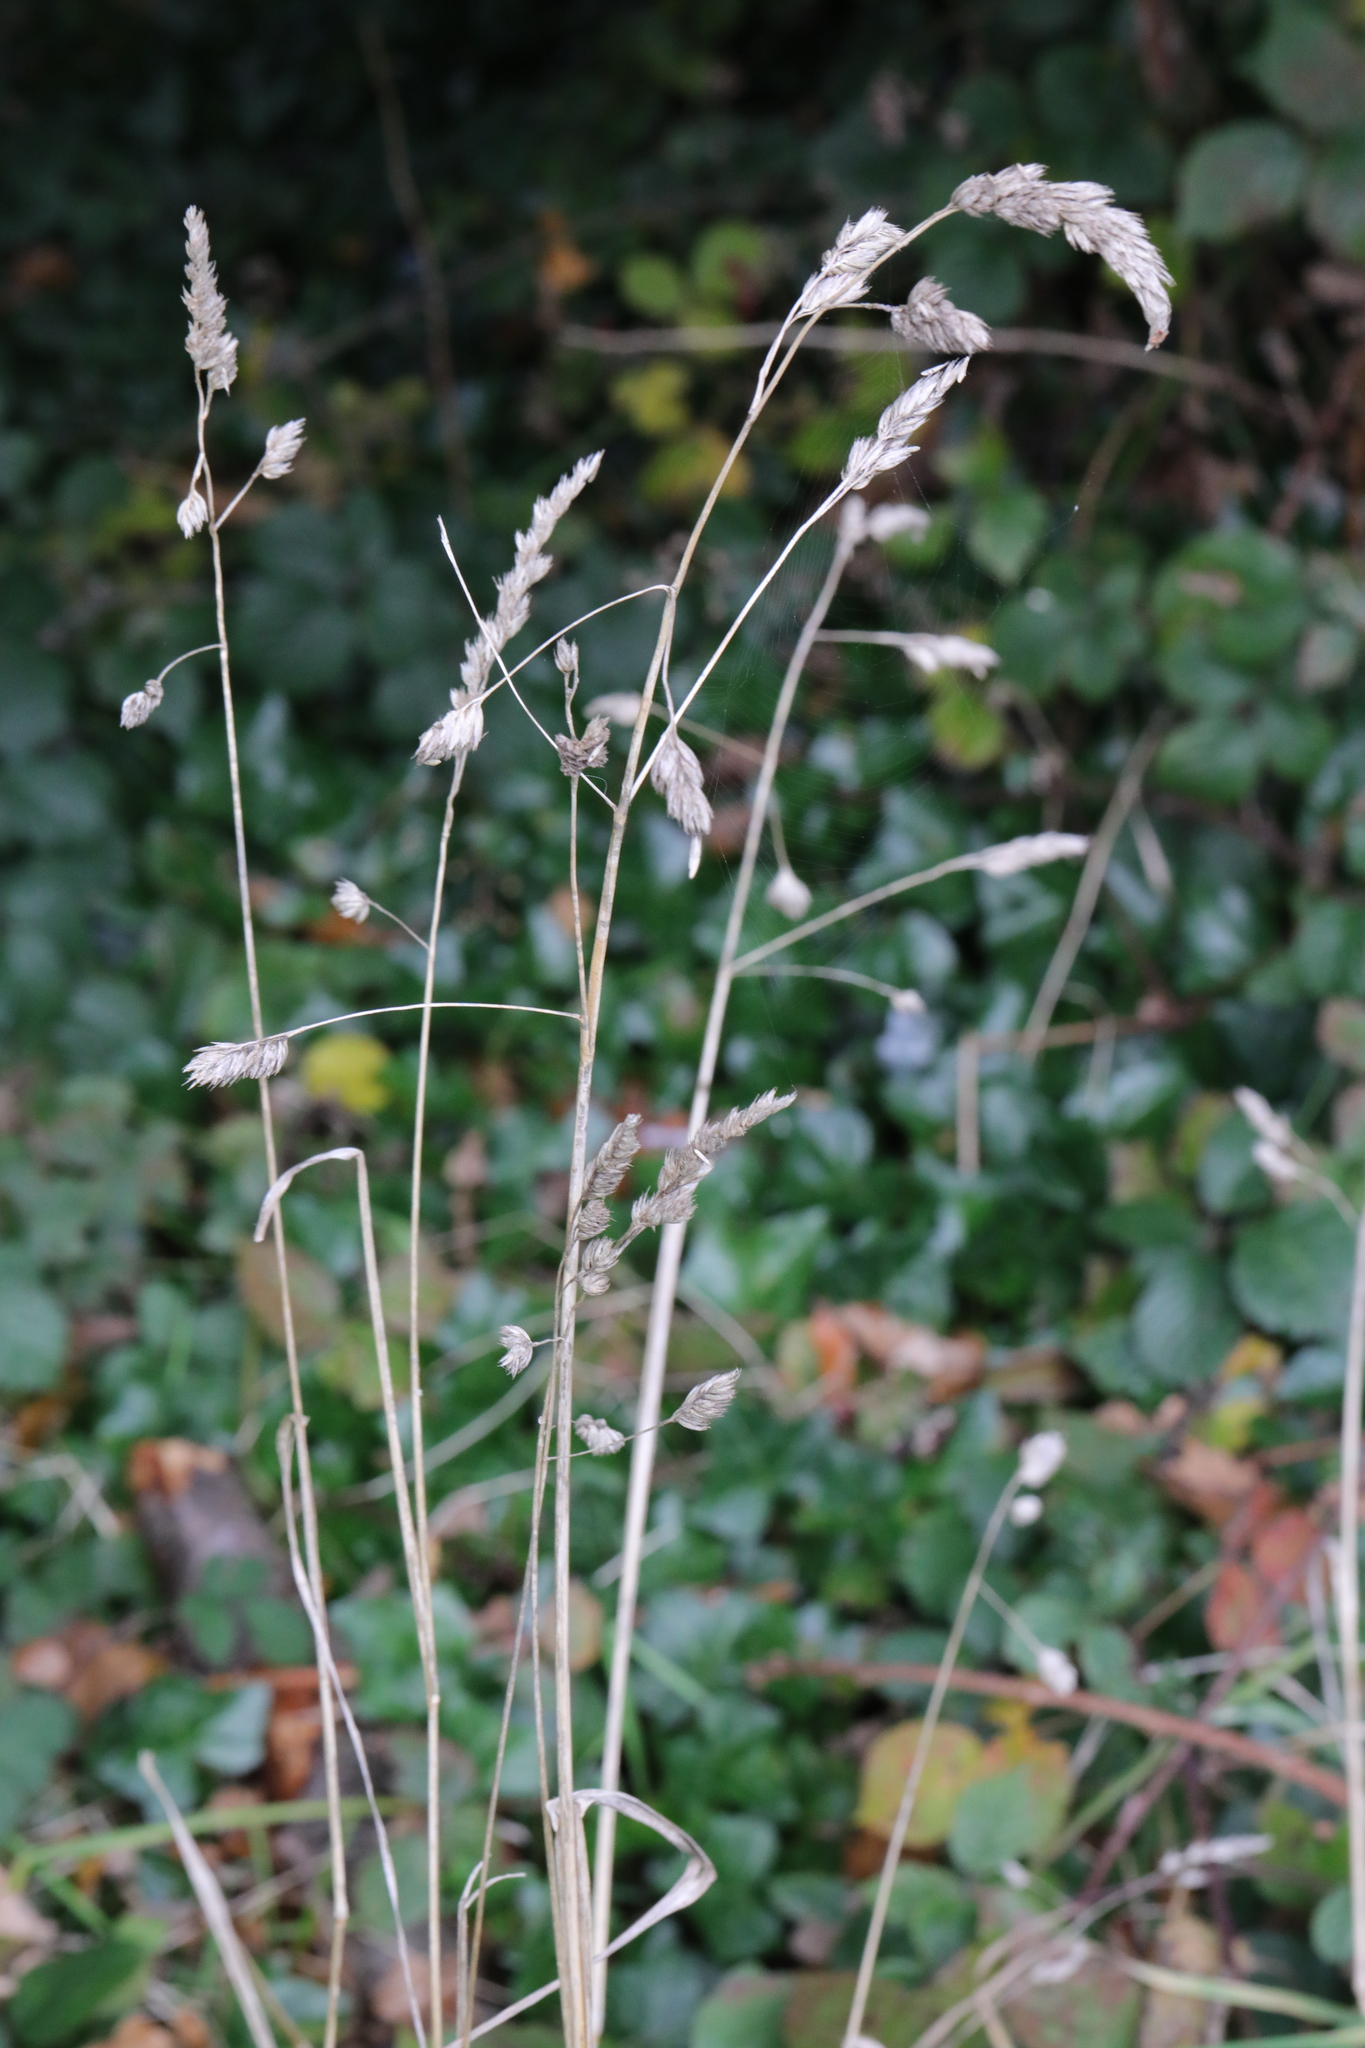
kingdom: Plantae
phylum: Tracheophyta
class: Liliopsida
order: Poales
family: Poaceae
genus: Dactylis
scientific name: Dactylis glomerata
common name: Orchardgrass
